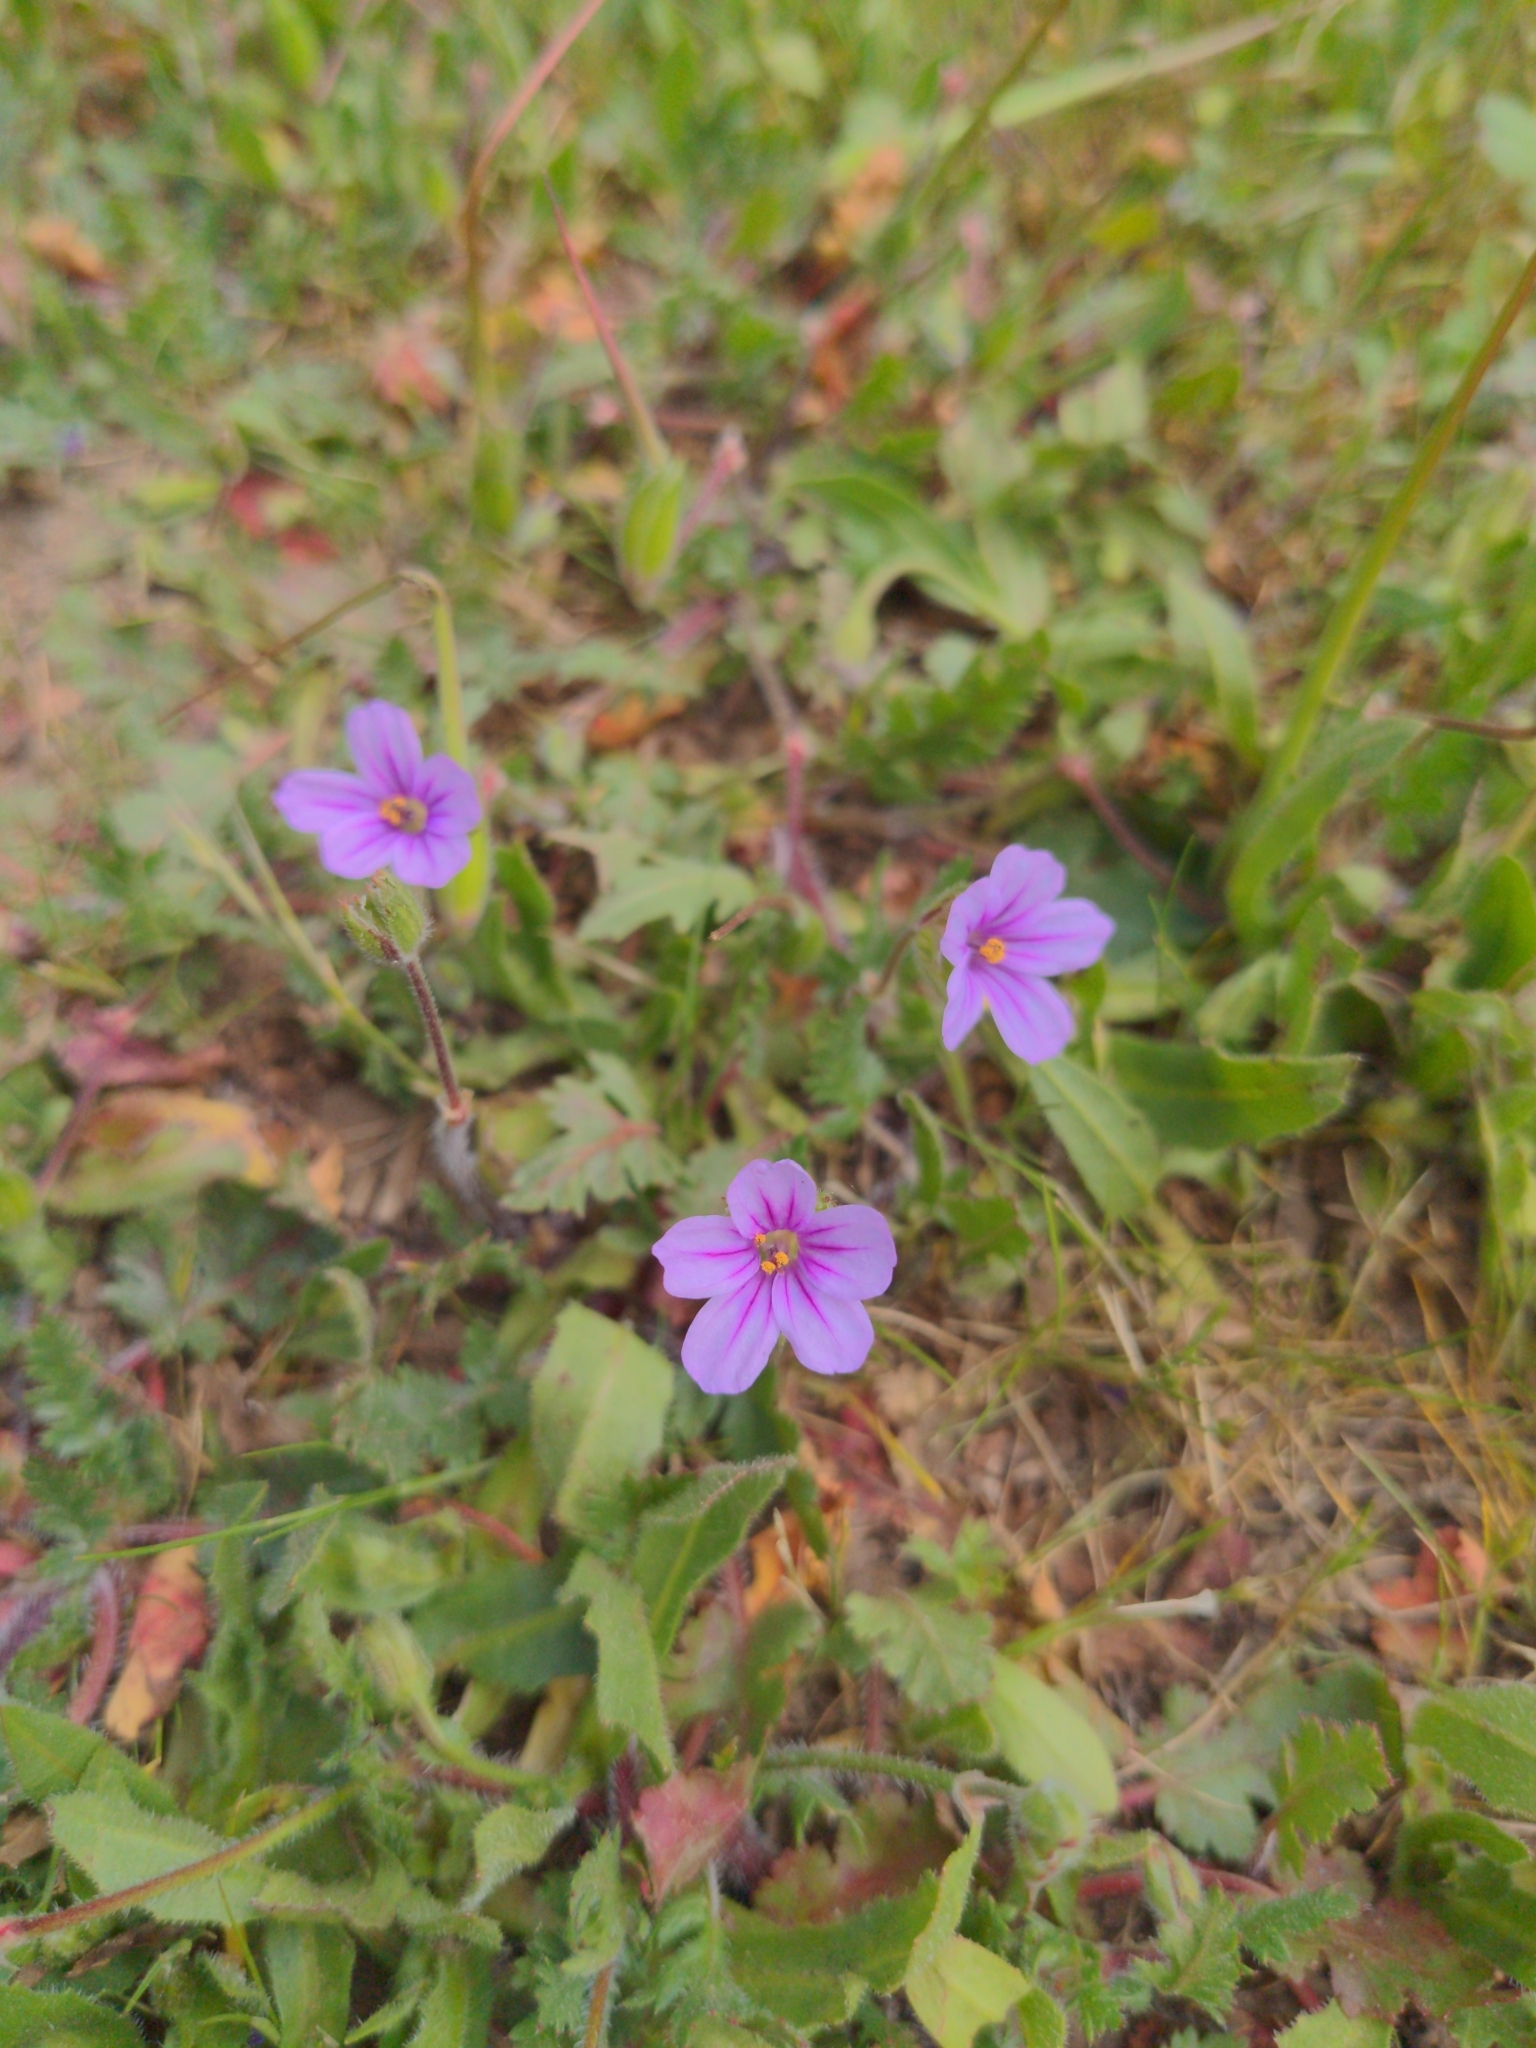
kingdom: Plantae
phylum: Tracheophyta
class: Magnoliopsida
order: Geraniales
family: Geraniaceae
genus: Erodium
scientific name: Erodium botrys
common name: Mediterranean stork's-bill
